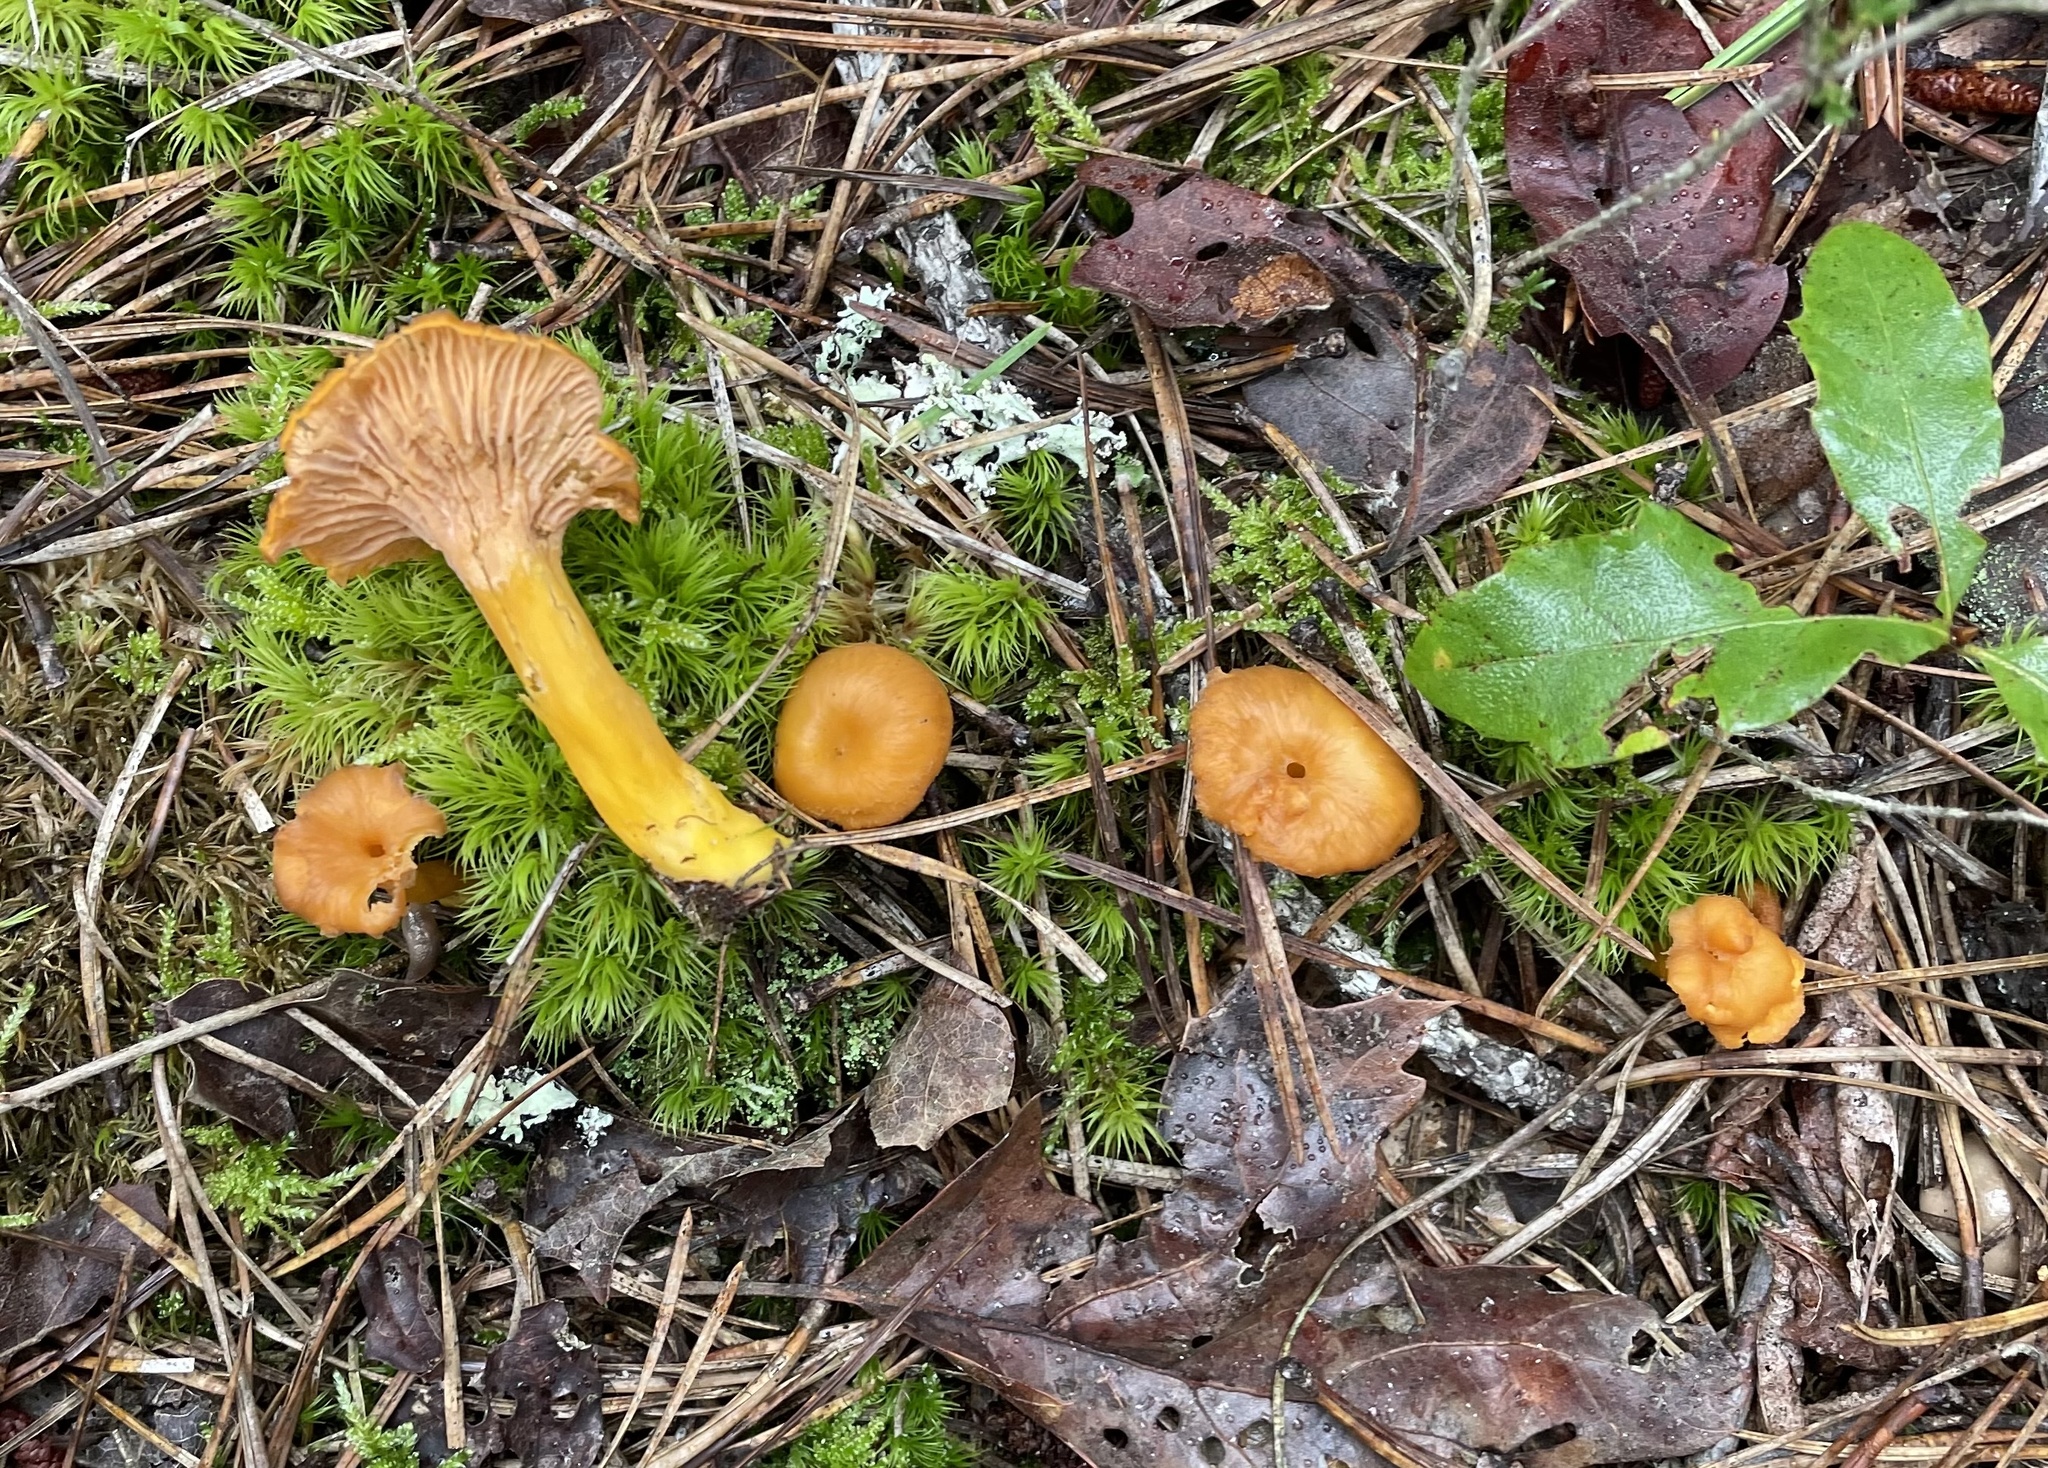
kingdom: Fungi
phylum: Basidiomycota
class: Agaricomycetes
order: Cantharellales
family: Hydnaceae
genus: Craterellus
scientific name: Craterellus ignicolor
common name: Flame chanterelle
